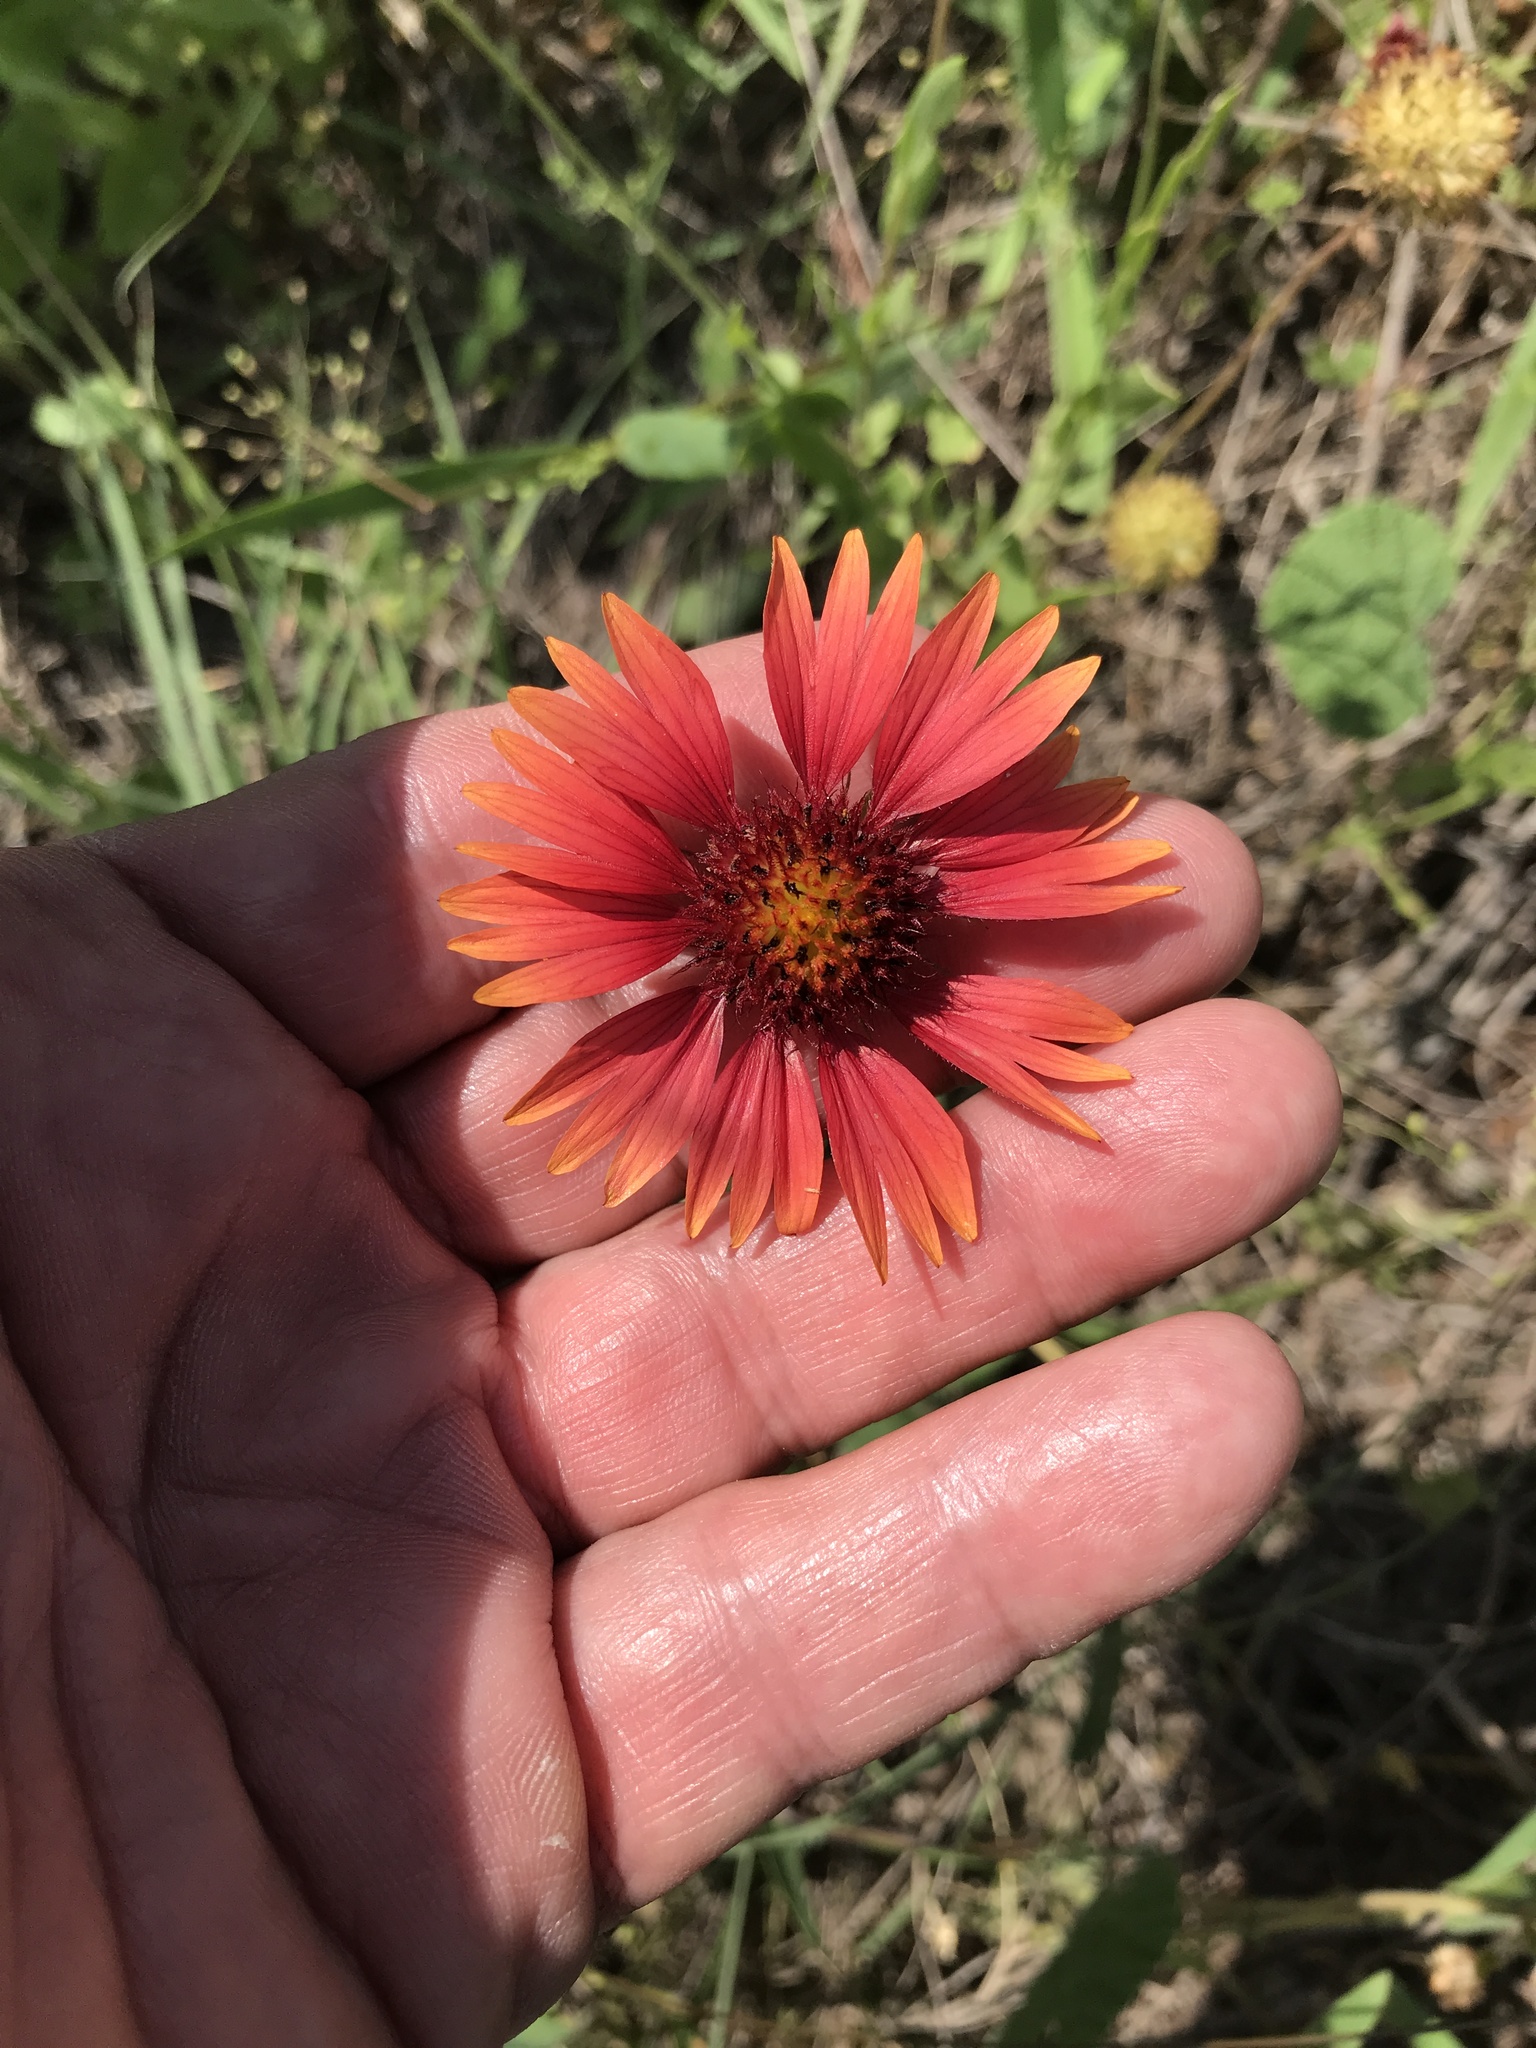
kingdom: Plantae
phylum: Tracheophyta
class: Magnoliopsida
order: Asterales
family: Asteraceae
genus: Gaillardia
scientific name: Gaillardia pulchella
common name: Firewheel
